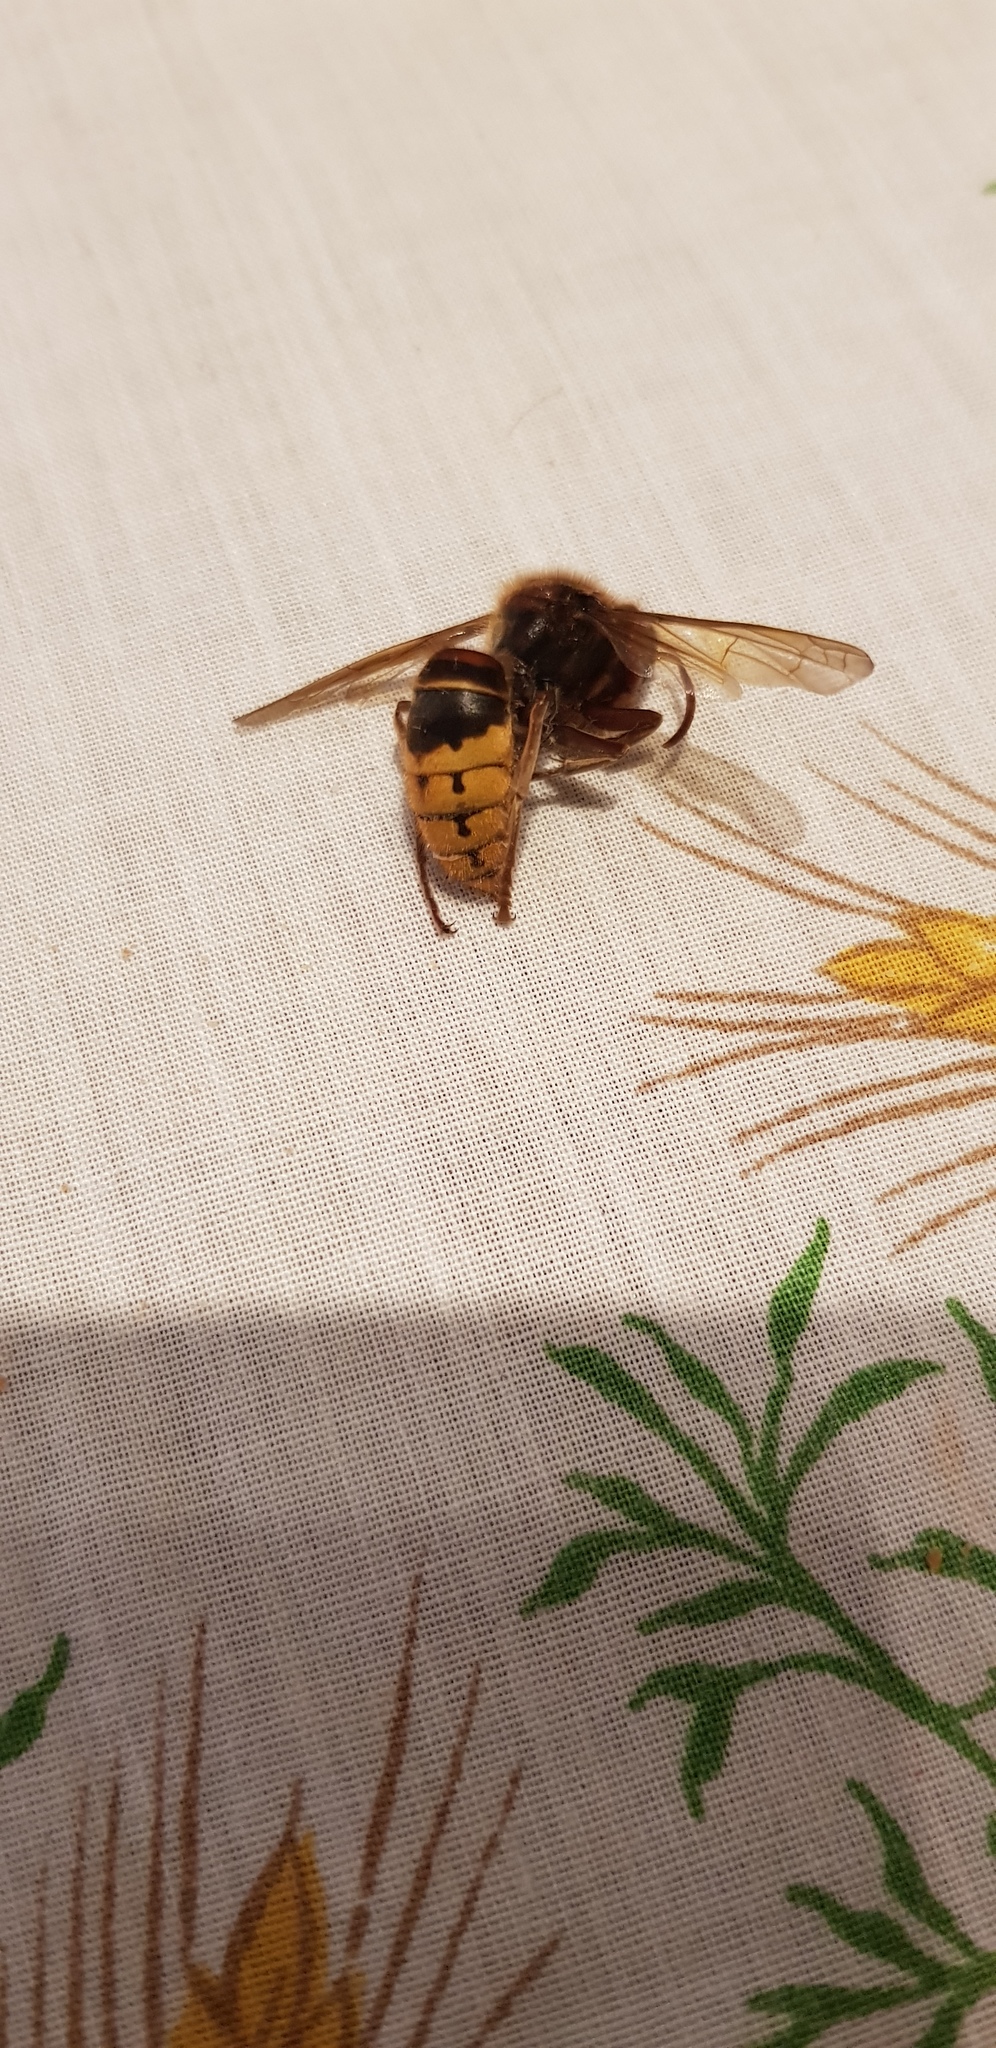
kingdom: Animalia
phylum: Arthropoda
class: Insecta
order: Hymenoptera
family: Vespidae
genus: Vespa
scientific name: Vespa crabro
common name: Hornet
